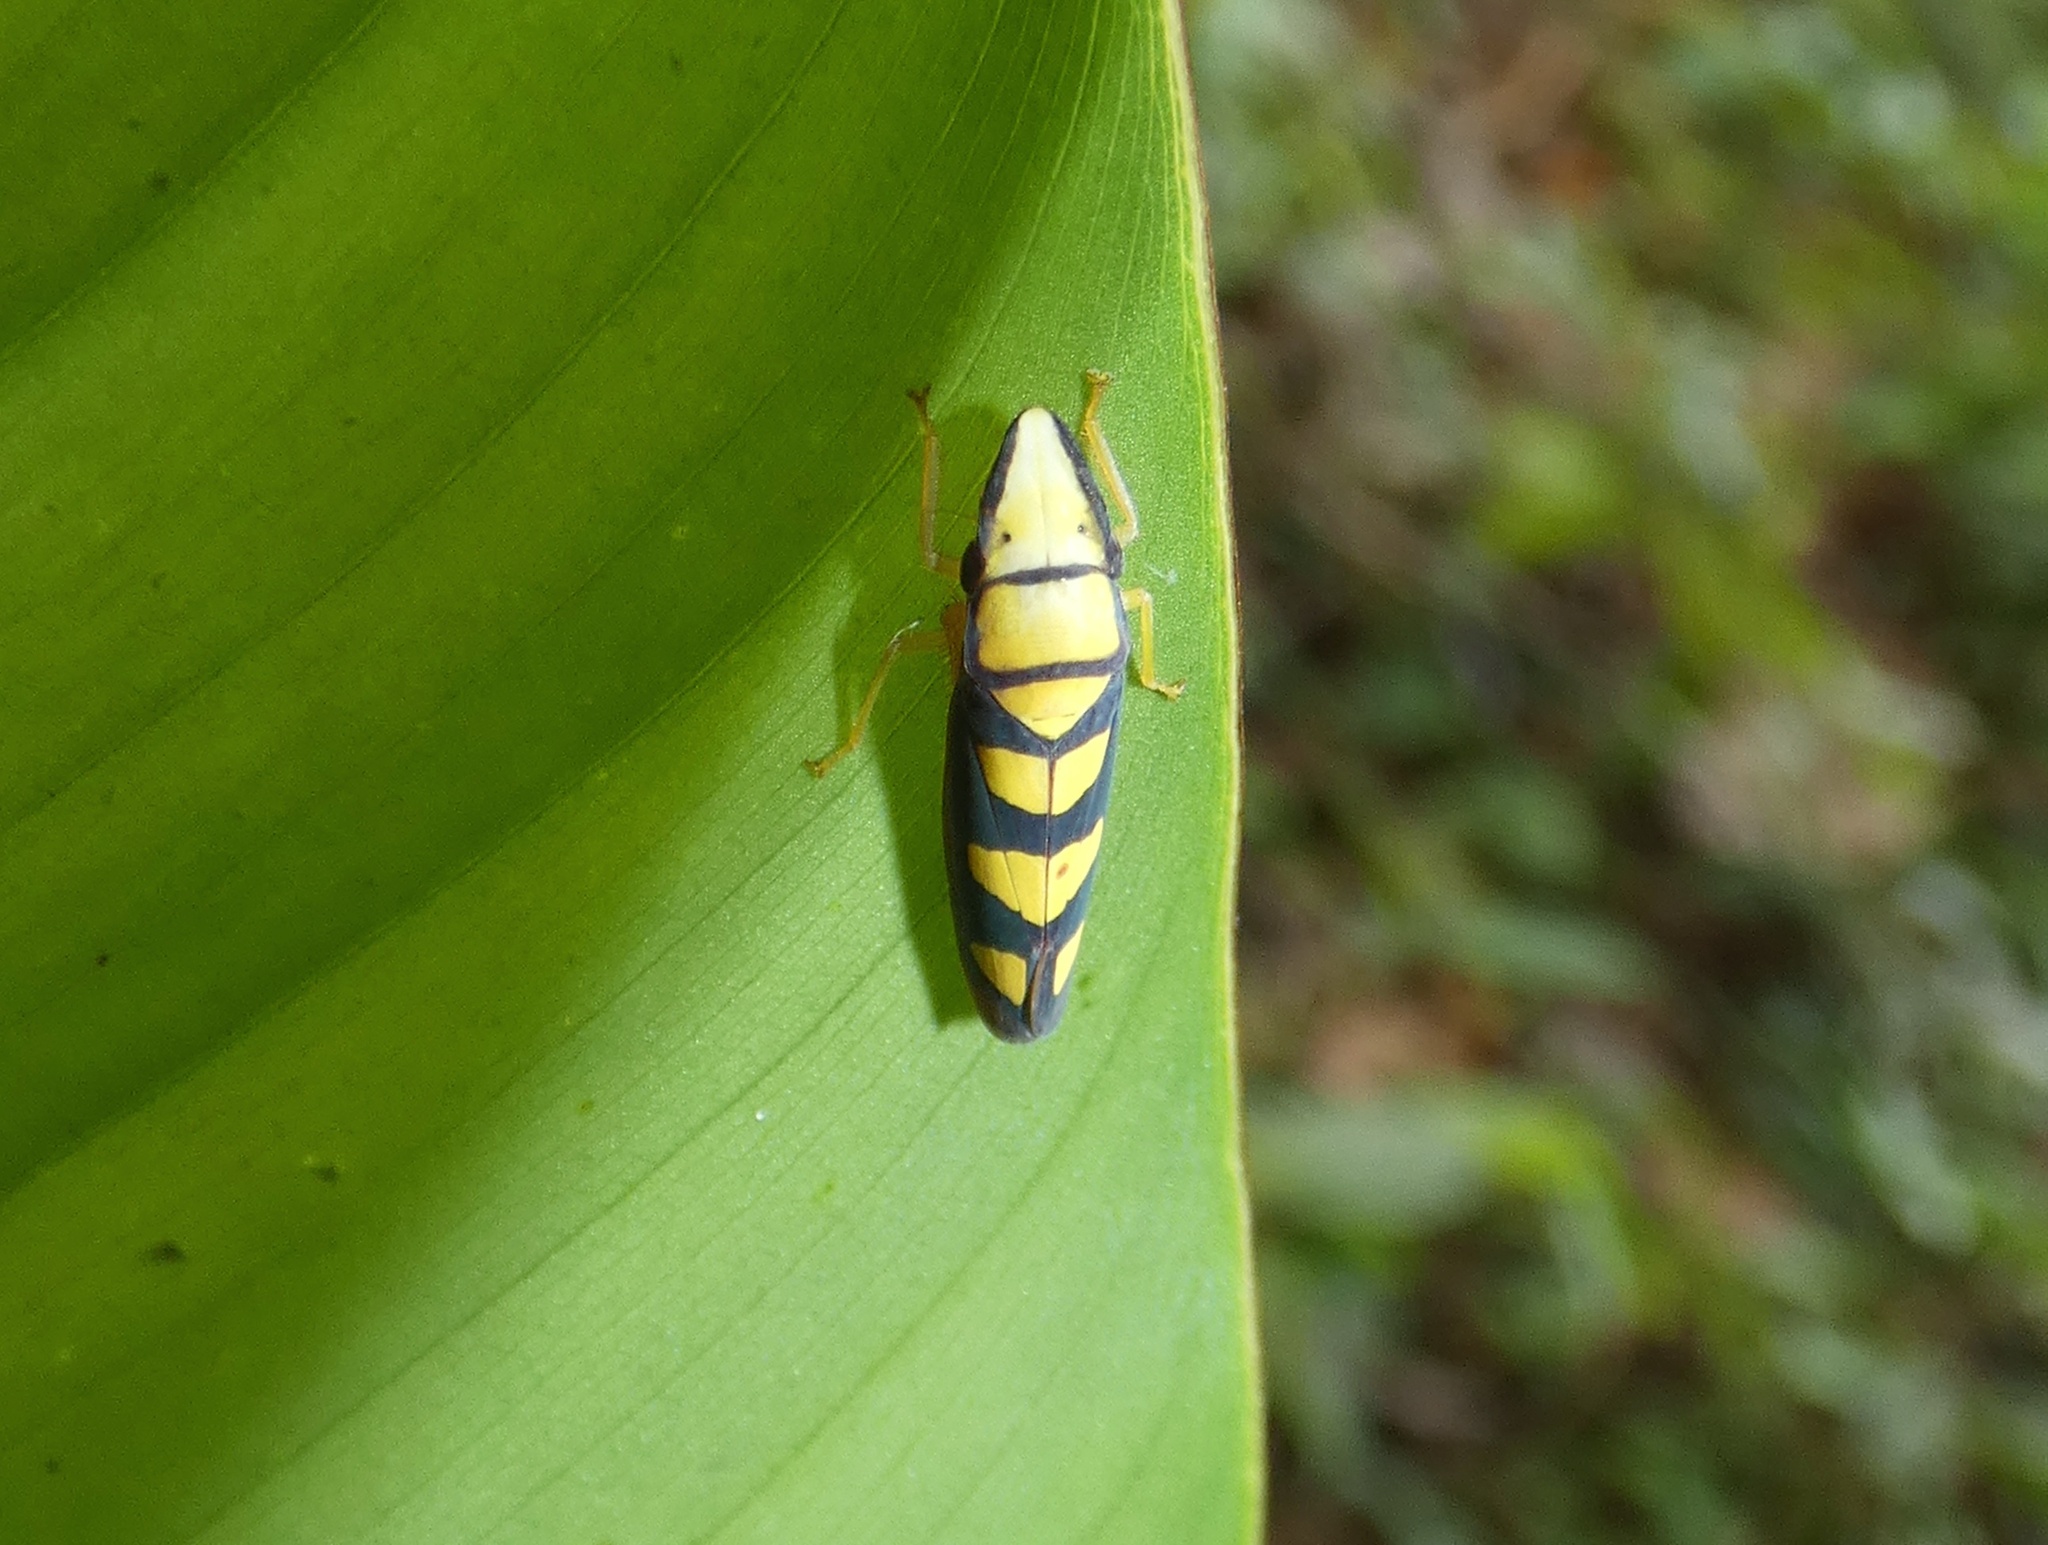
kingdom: Animalia
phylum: Arthropoda
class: Insecta
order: Hemiptera
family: Cicadellidae
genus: Platygonia
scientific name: Platygonia spatulata
